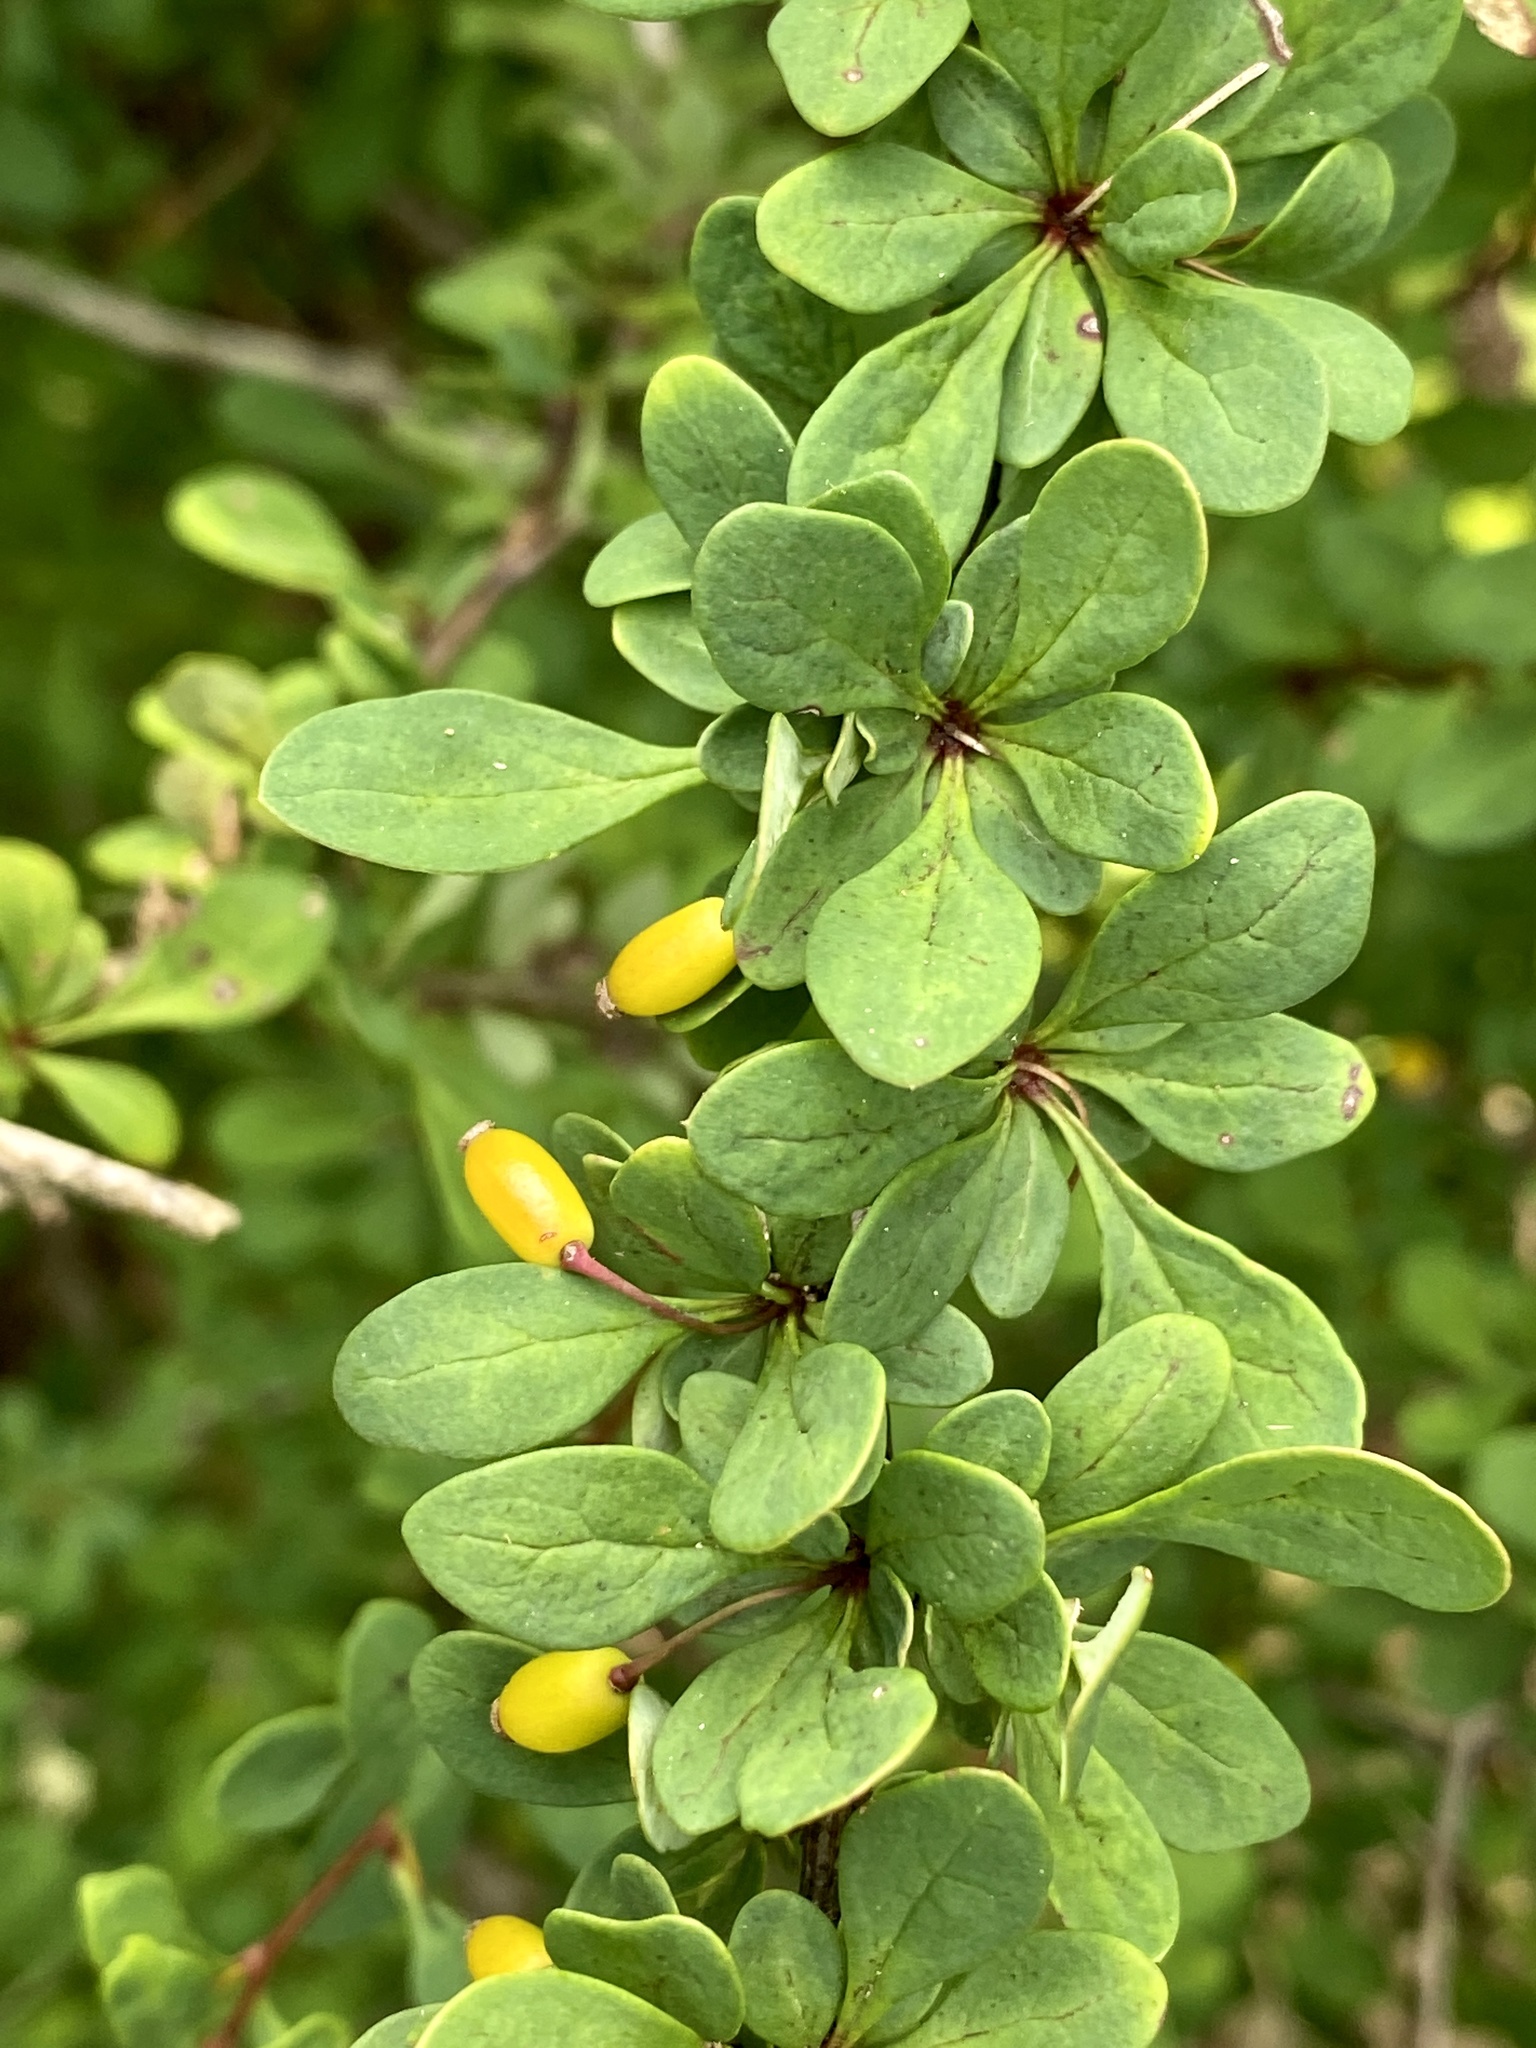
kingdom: Plantae
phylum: Tracheophyta
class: Magnoliopsida
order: Ranunculales
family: Berberidaceae
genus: Berberis
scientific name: Berberis thunbergii
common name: Japanese barberry
